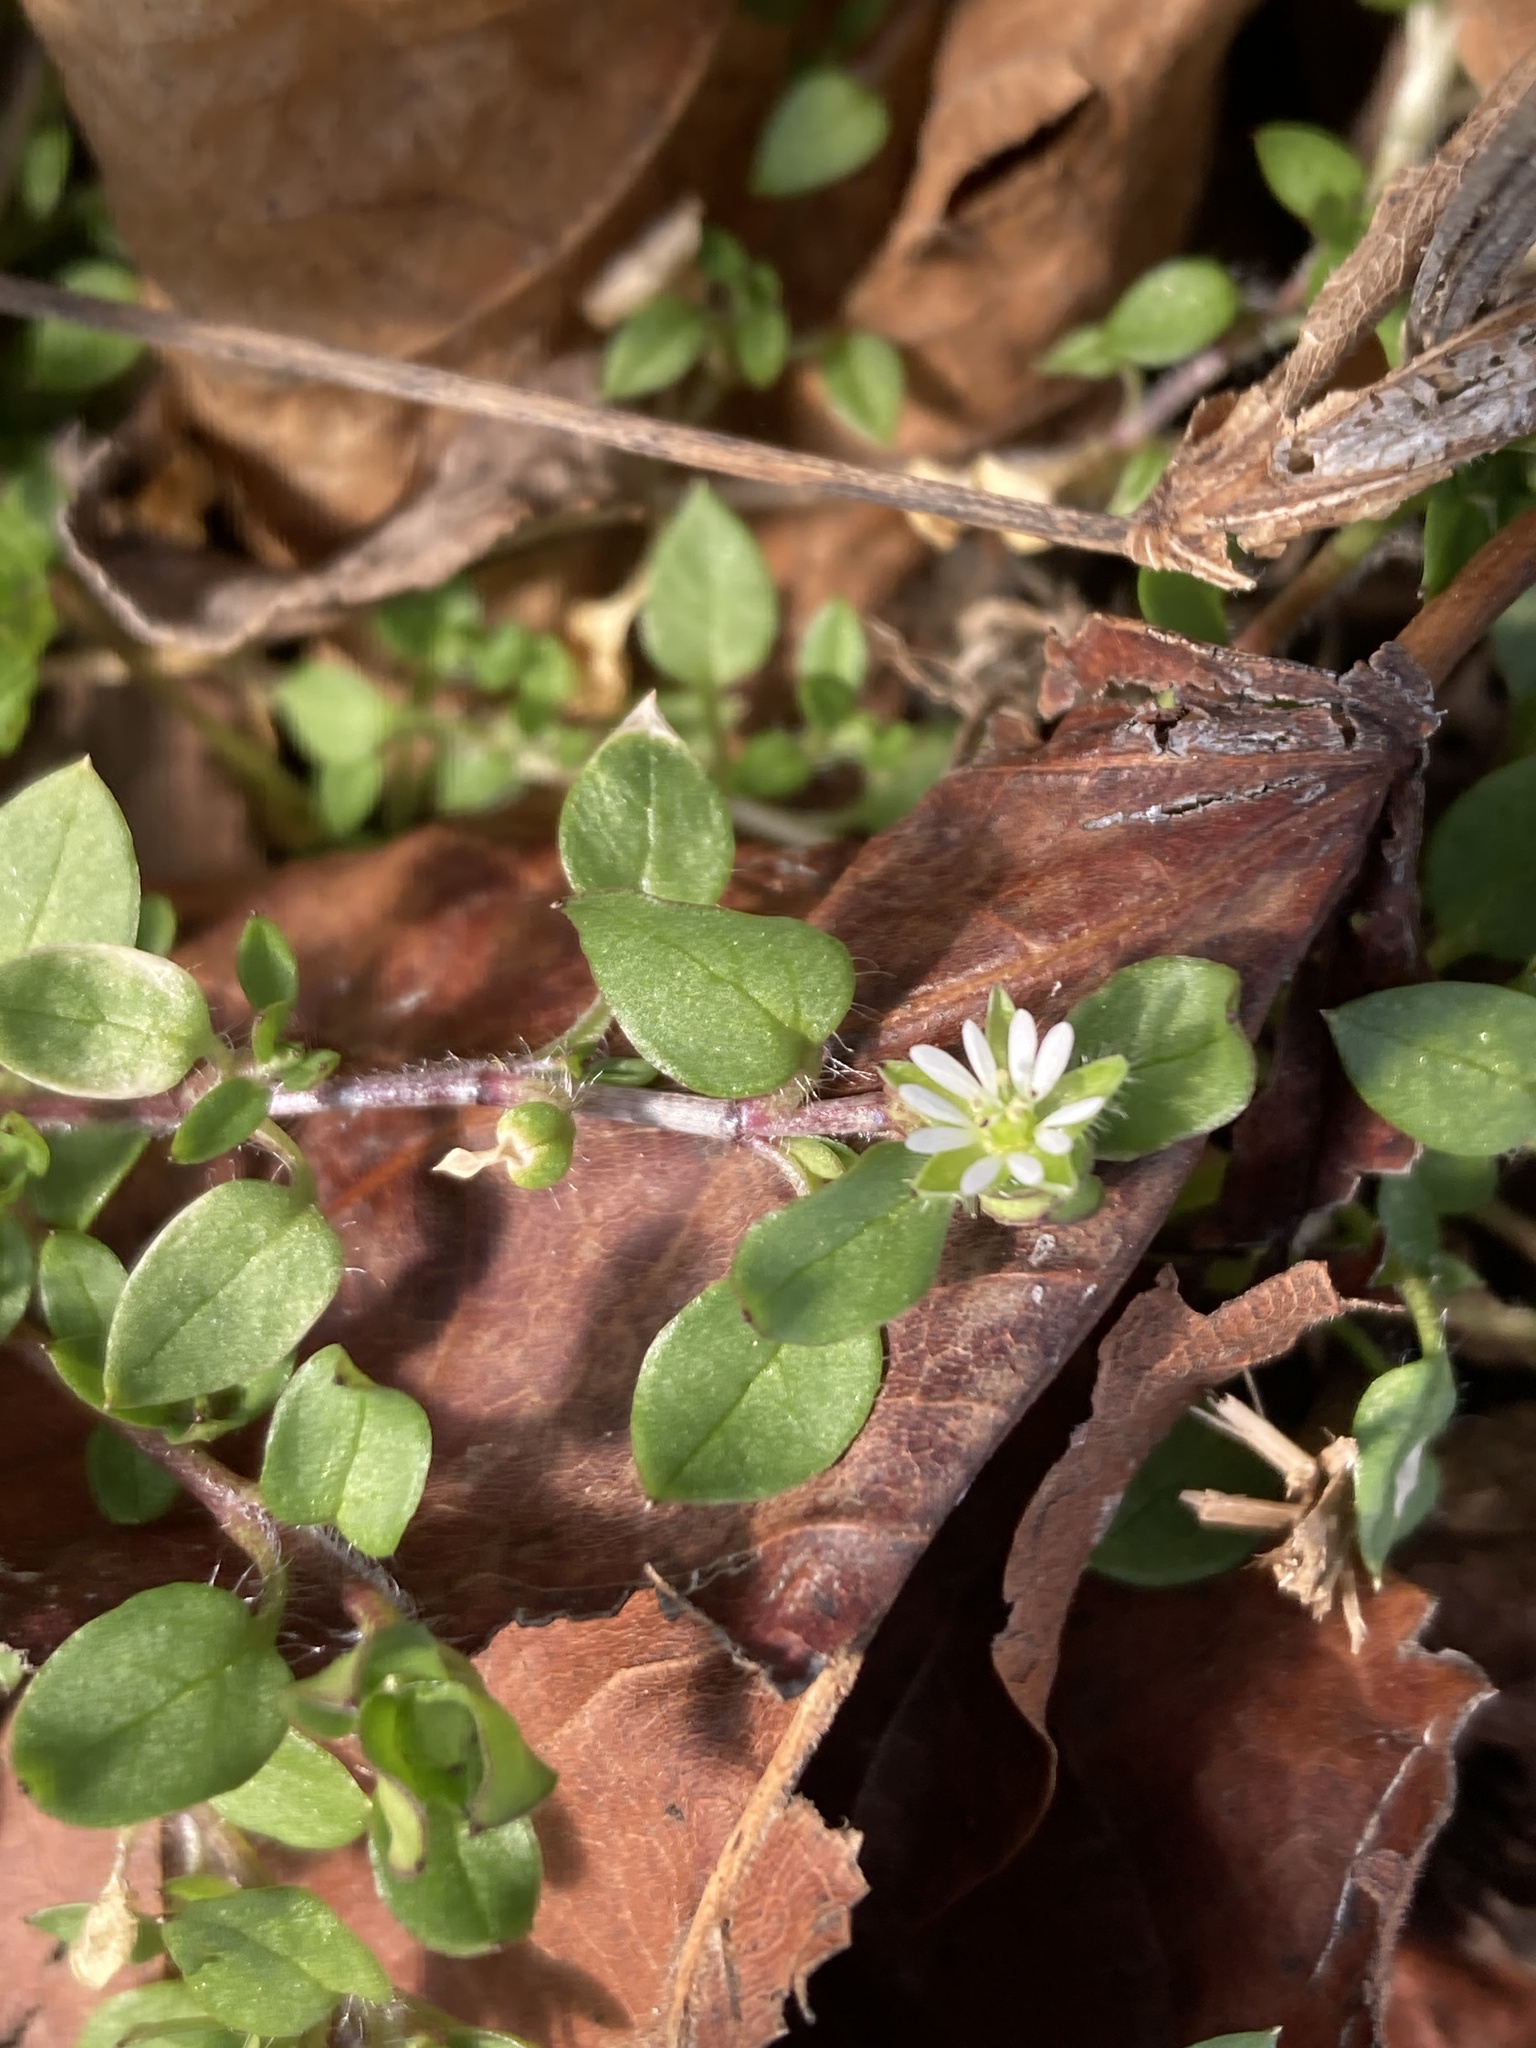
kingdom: Plantae
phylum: Tracheophyta
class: Magnoliopsida
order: Caryophyllales
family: Caryophyllaceae
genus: Stellaria
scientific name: Stellaria media
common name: Common chickweed
